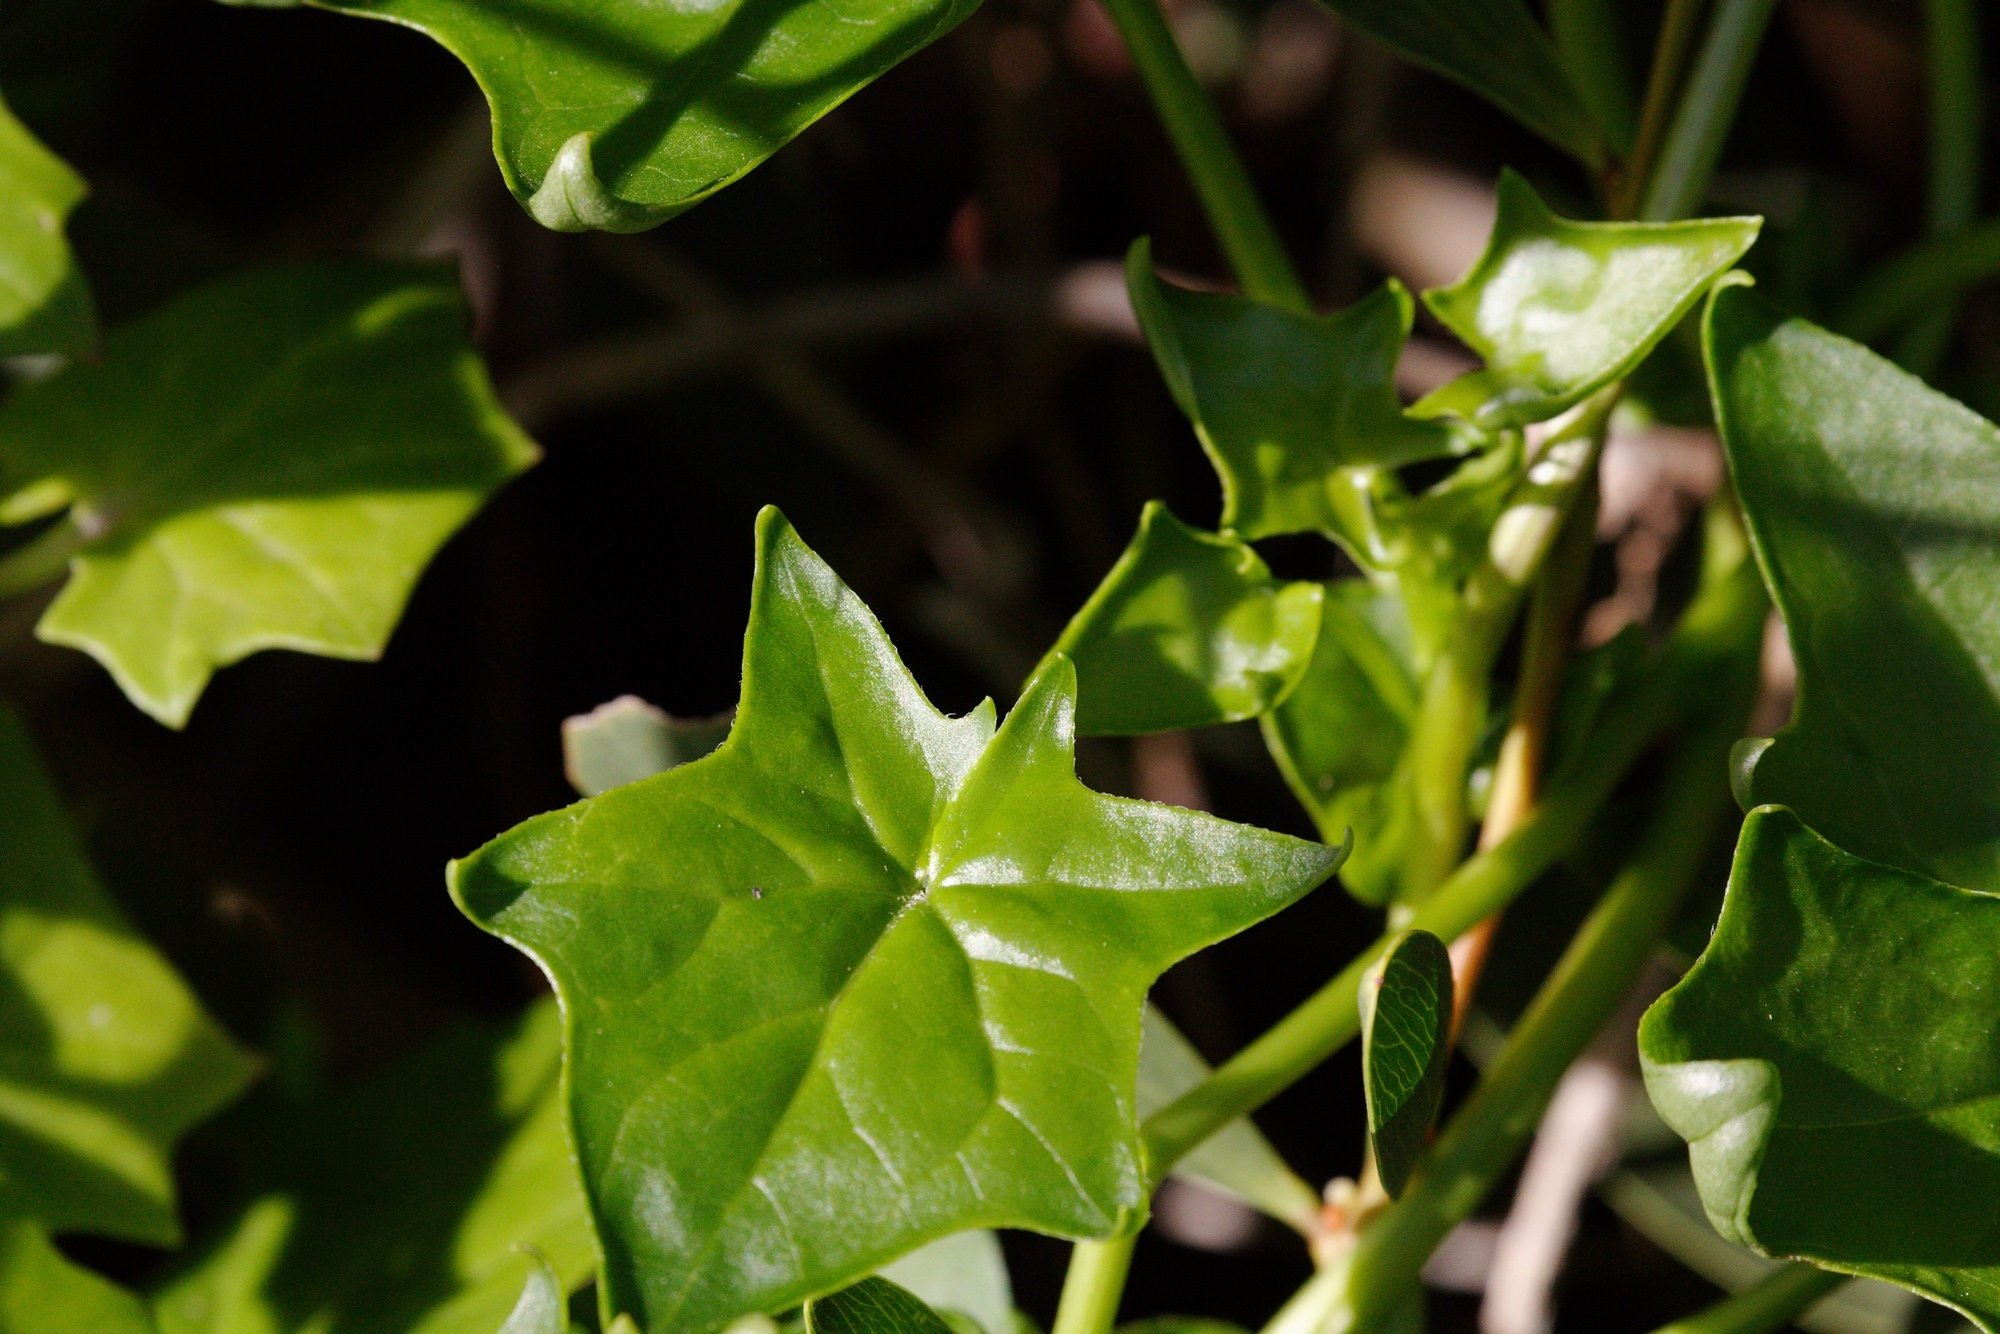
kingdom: Plantae
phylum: Tracheophyta
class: Magnoliopsida
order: Asterales
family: Asteraceae
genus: Delairea
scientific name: Delairea odorata
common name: Cape-ivy
